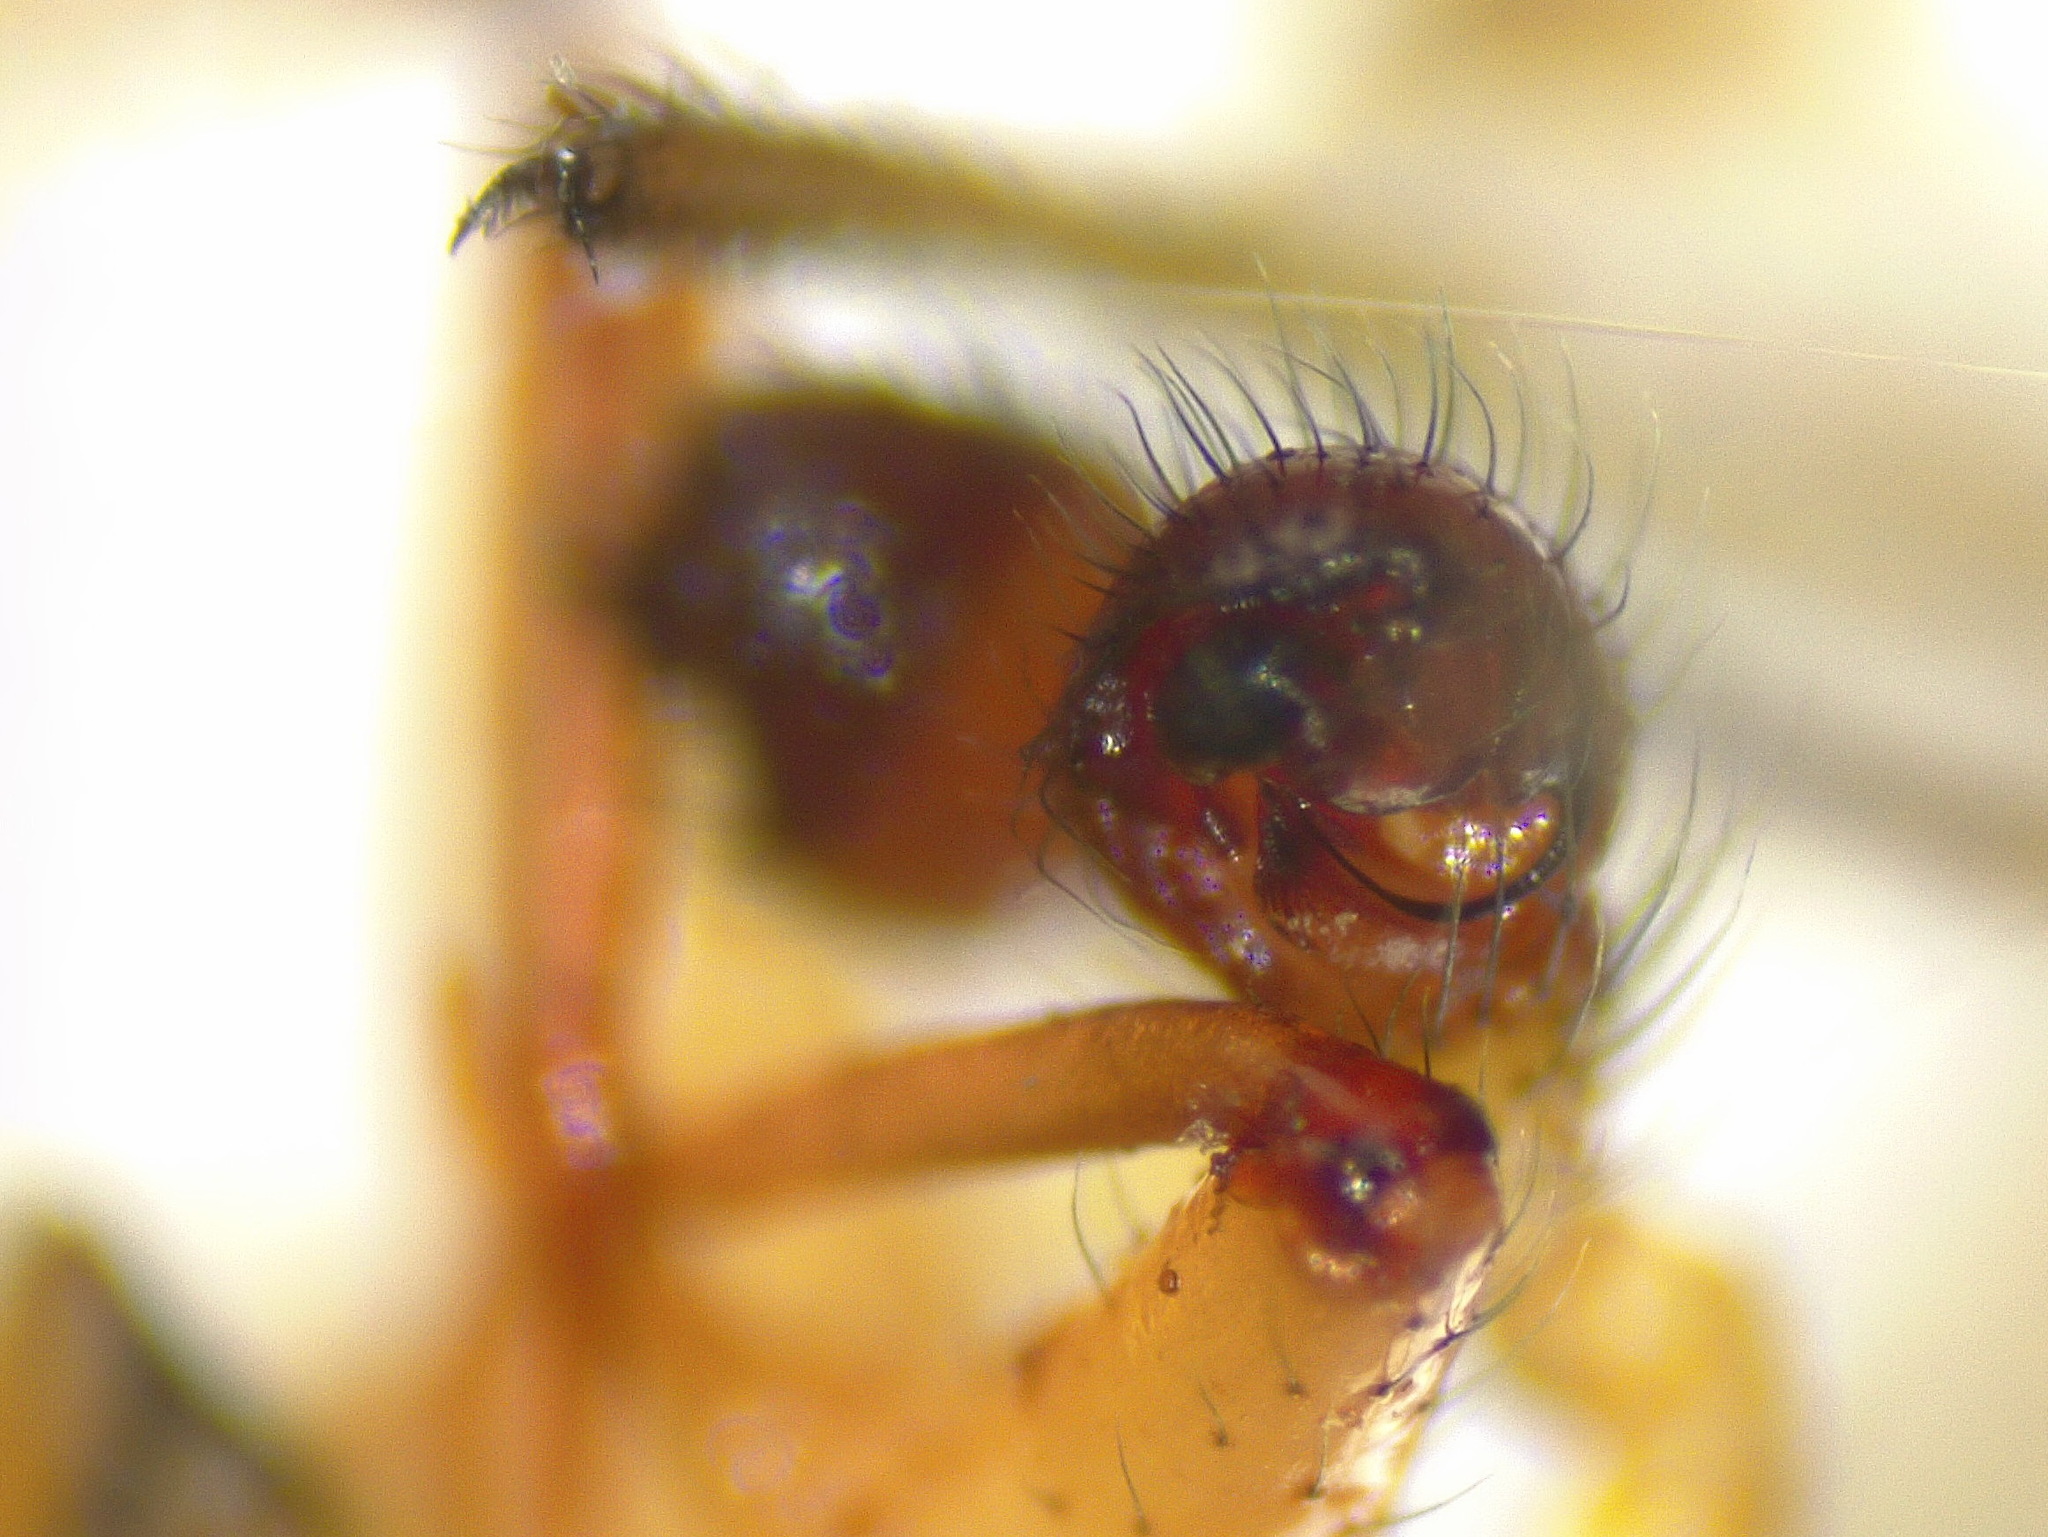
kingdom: Animalia
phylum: Arthropoda
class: Arachnida
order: Araneae
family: Theridiidae
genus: Enoplognatha
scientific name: Enoplognatha latimana
